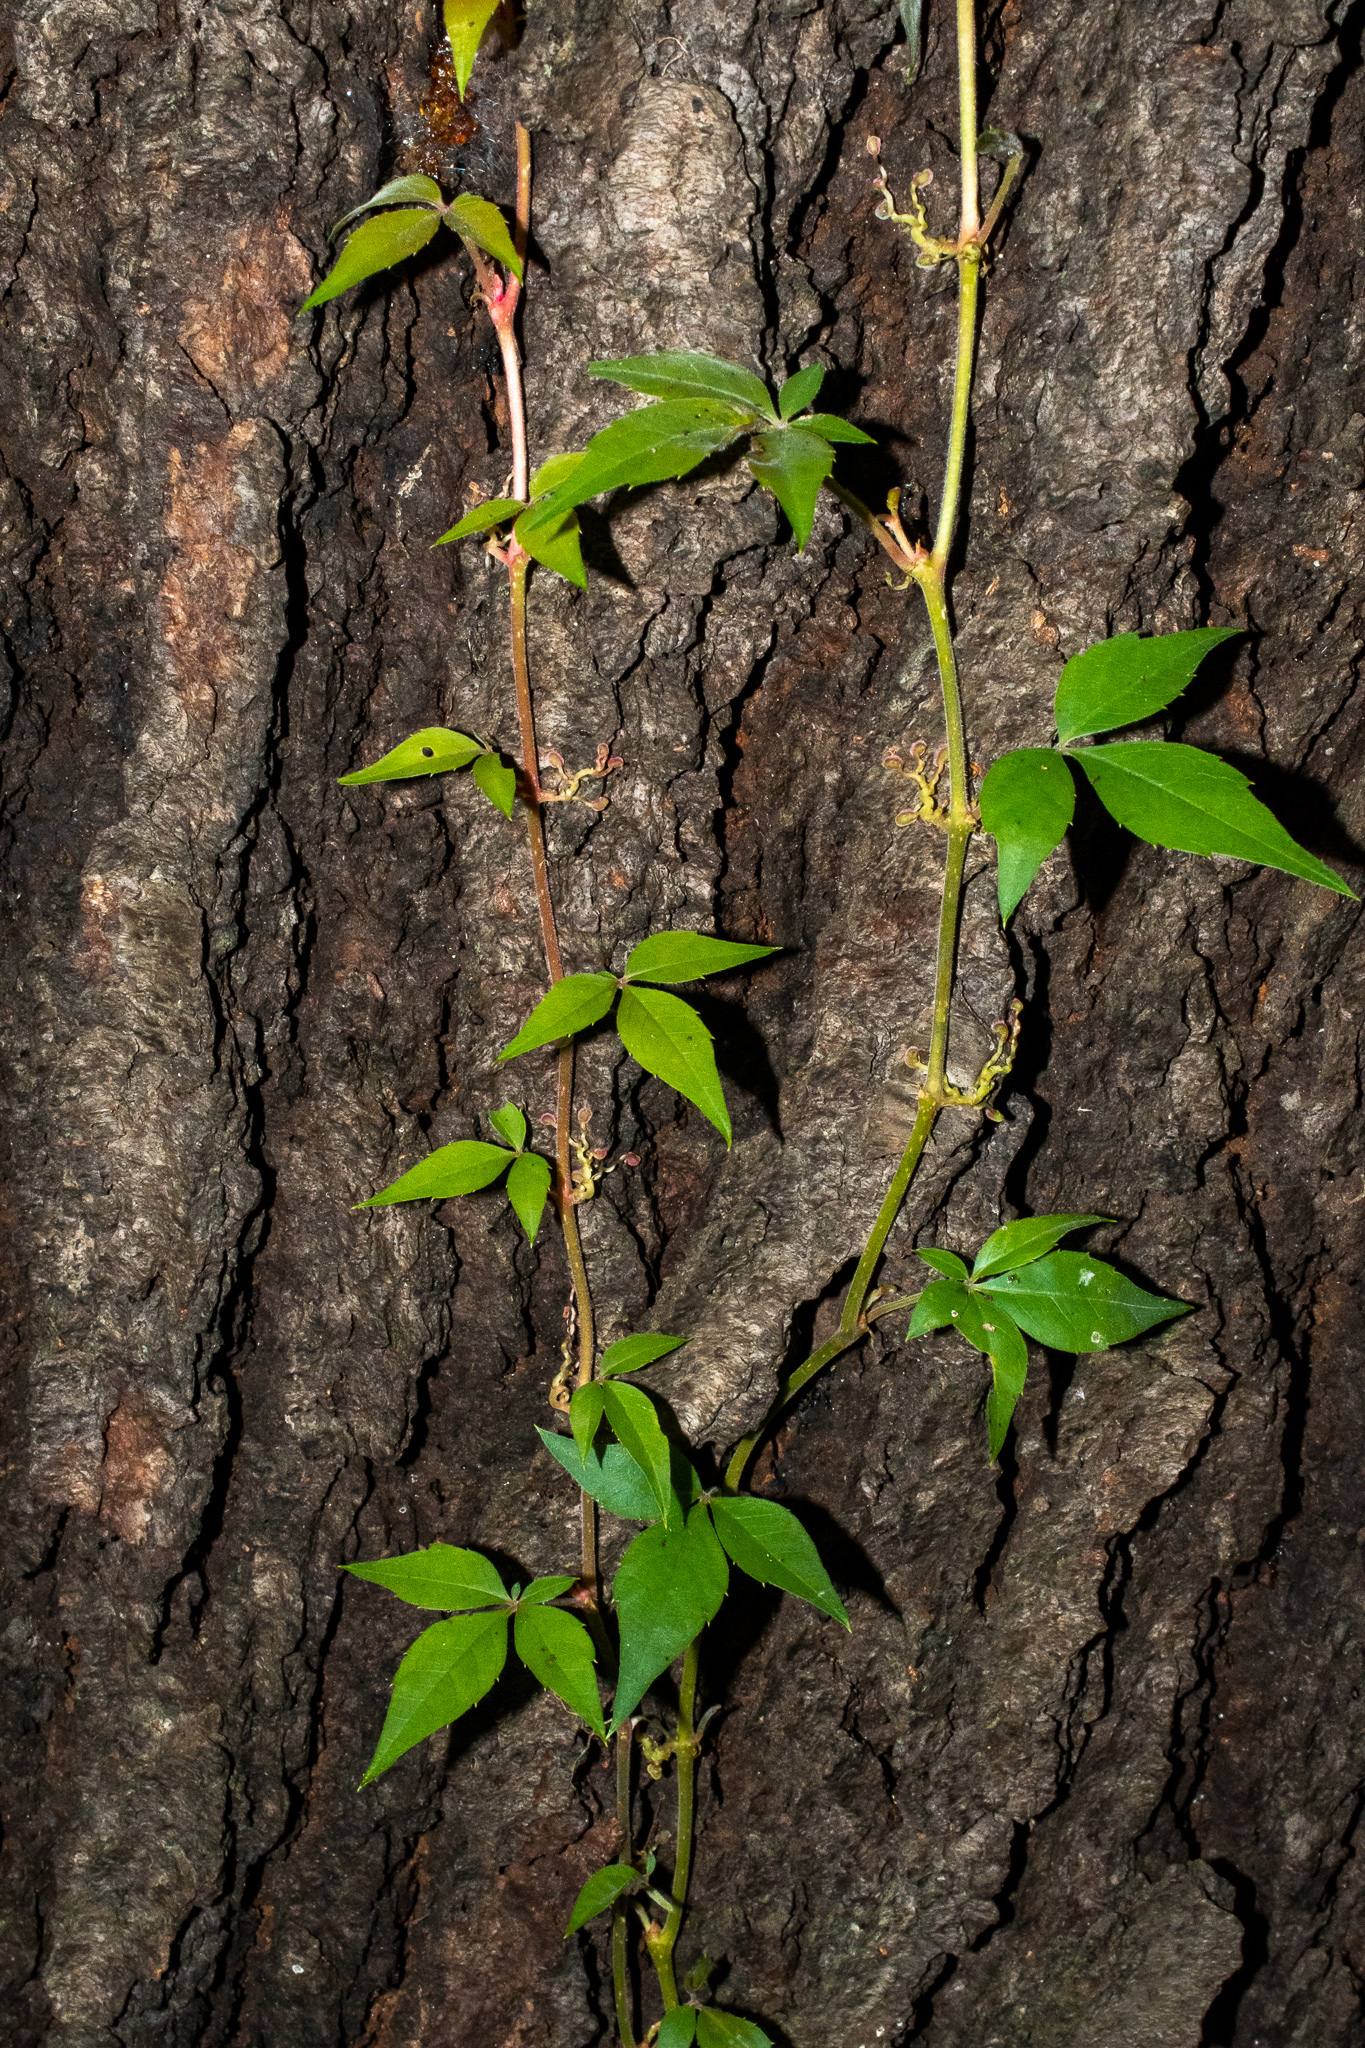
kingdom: Plantae
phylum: Tracheophyta
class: Magnoliopsida
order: Vitales
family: Vitaceae
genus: Parthenocissus
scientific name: Parthenocissus quinquefolia
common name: Virginia-creeper
